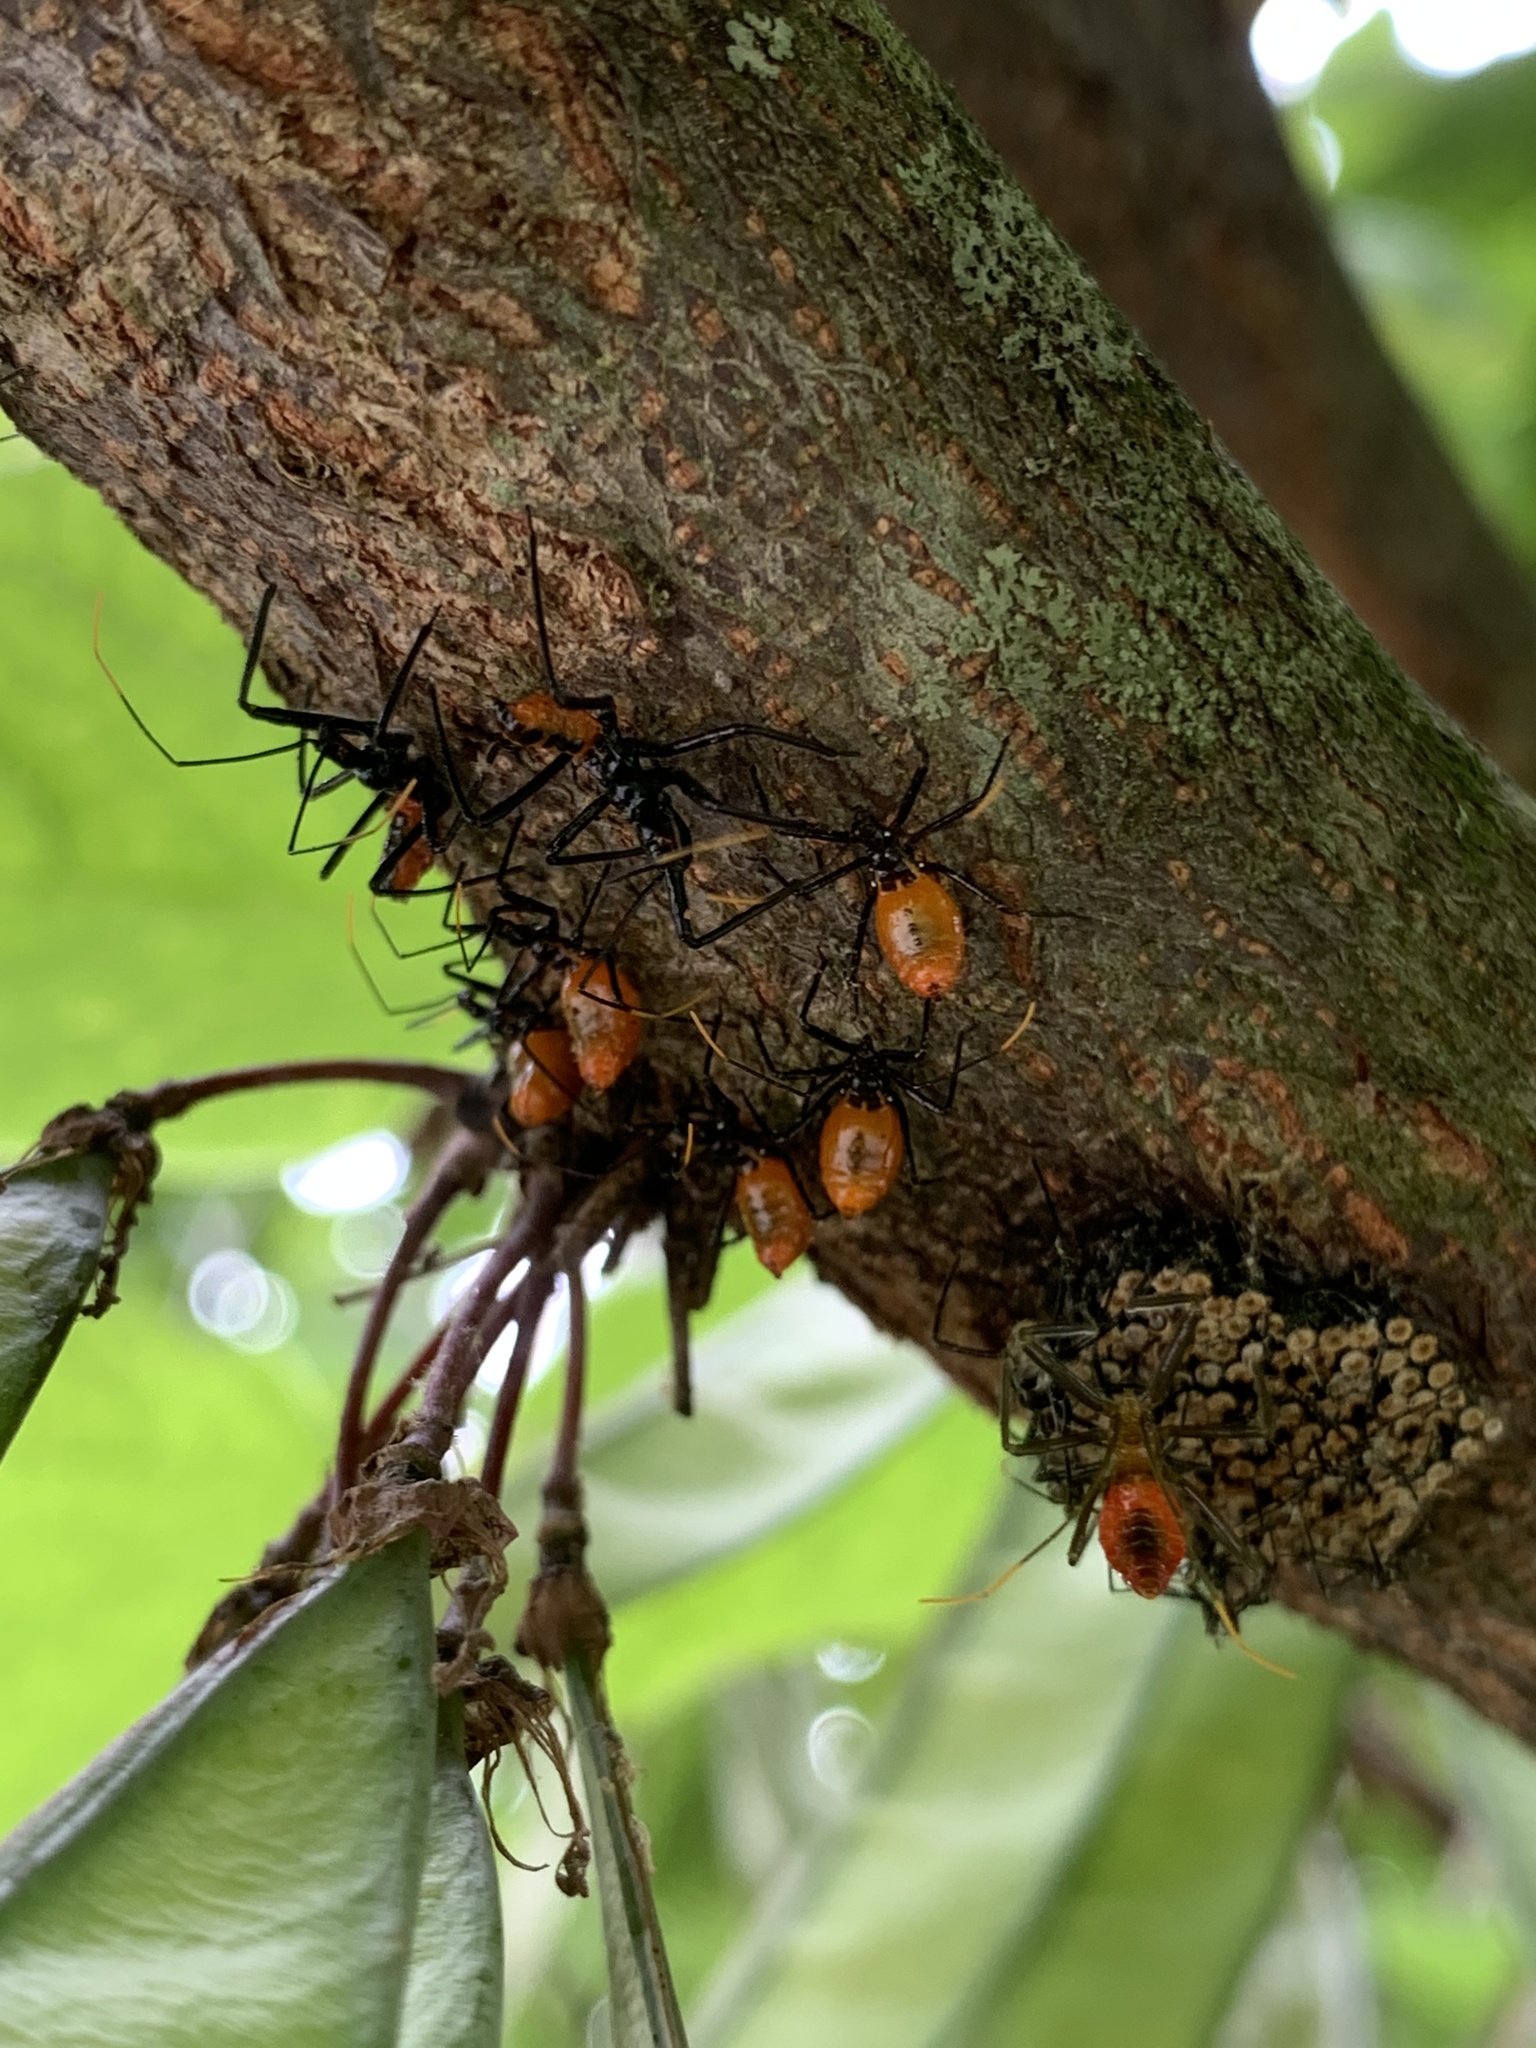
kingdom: Animalia
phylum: Arthropoda
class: Insecta
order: Hemiptera
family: Reduviidae
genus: Arilus
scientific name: Arilus cristatus
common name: North american wheel bug
